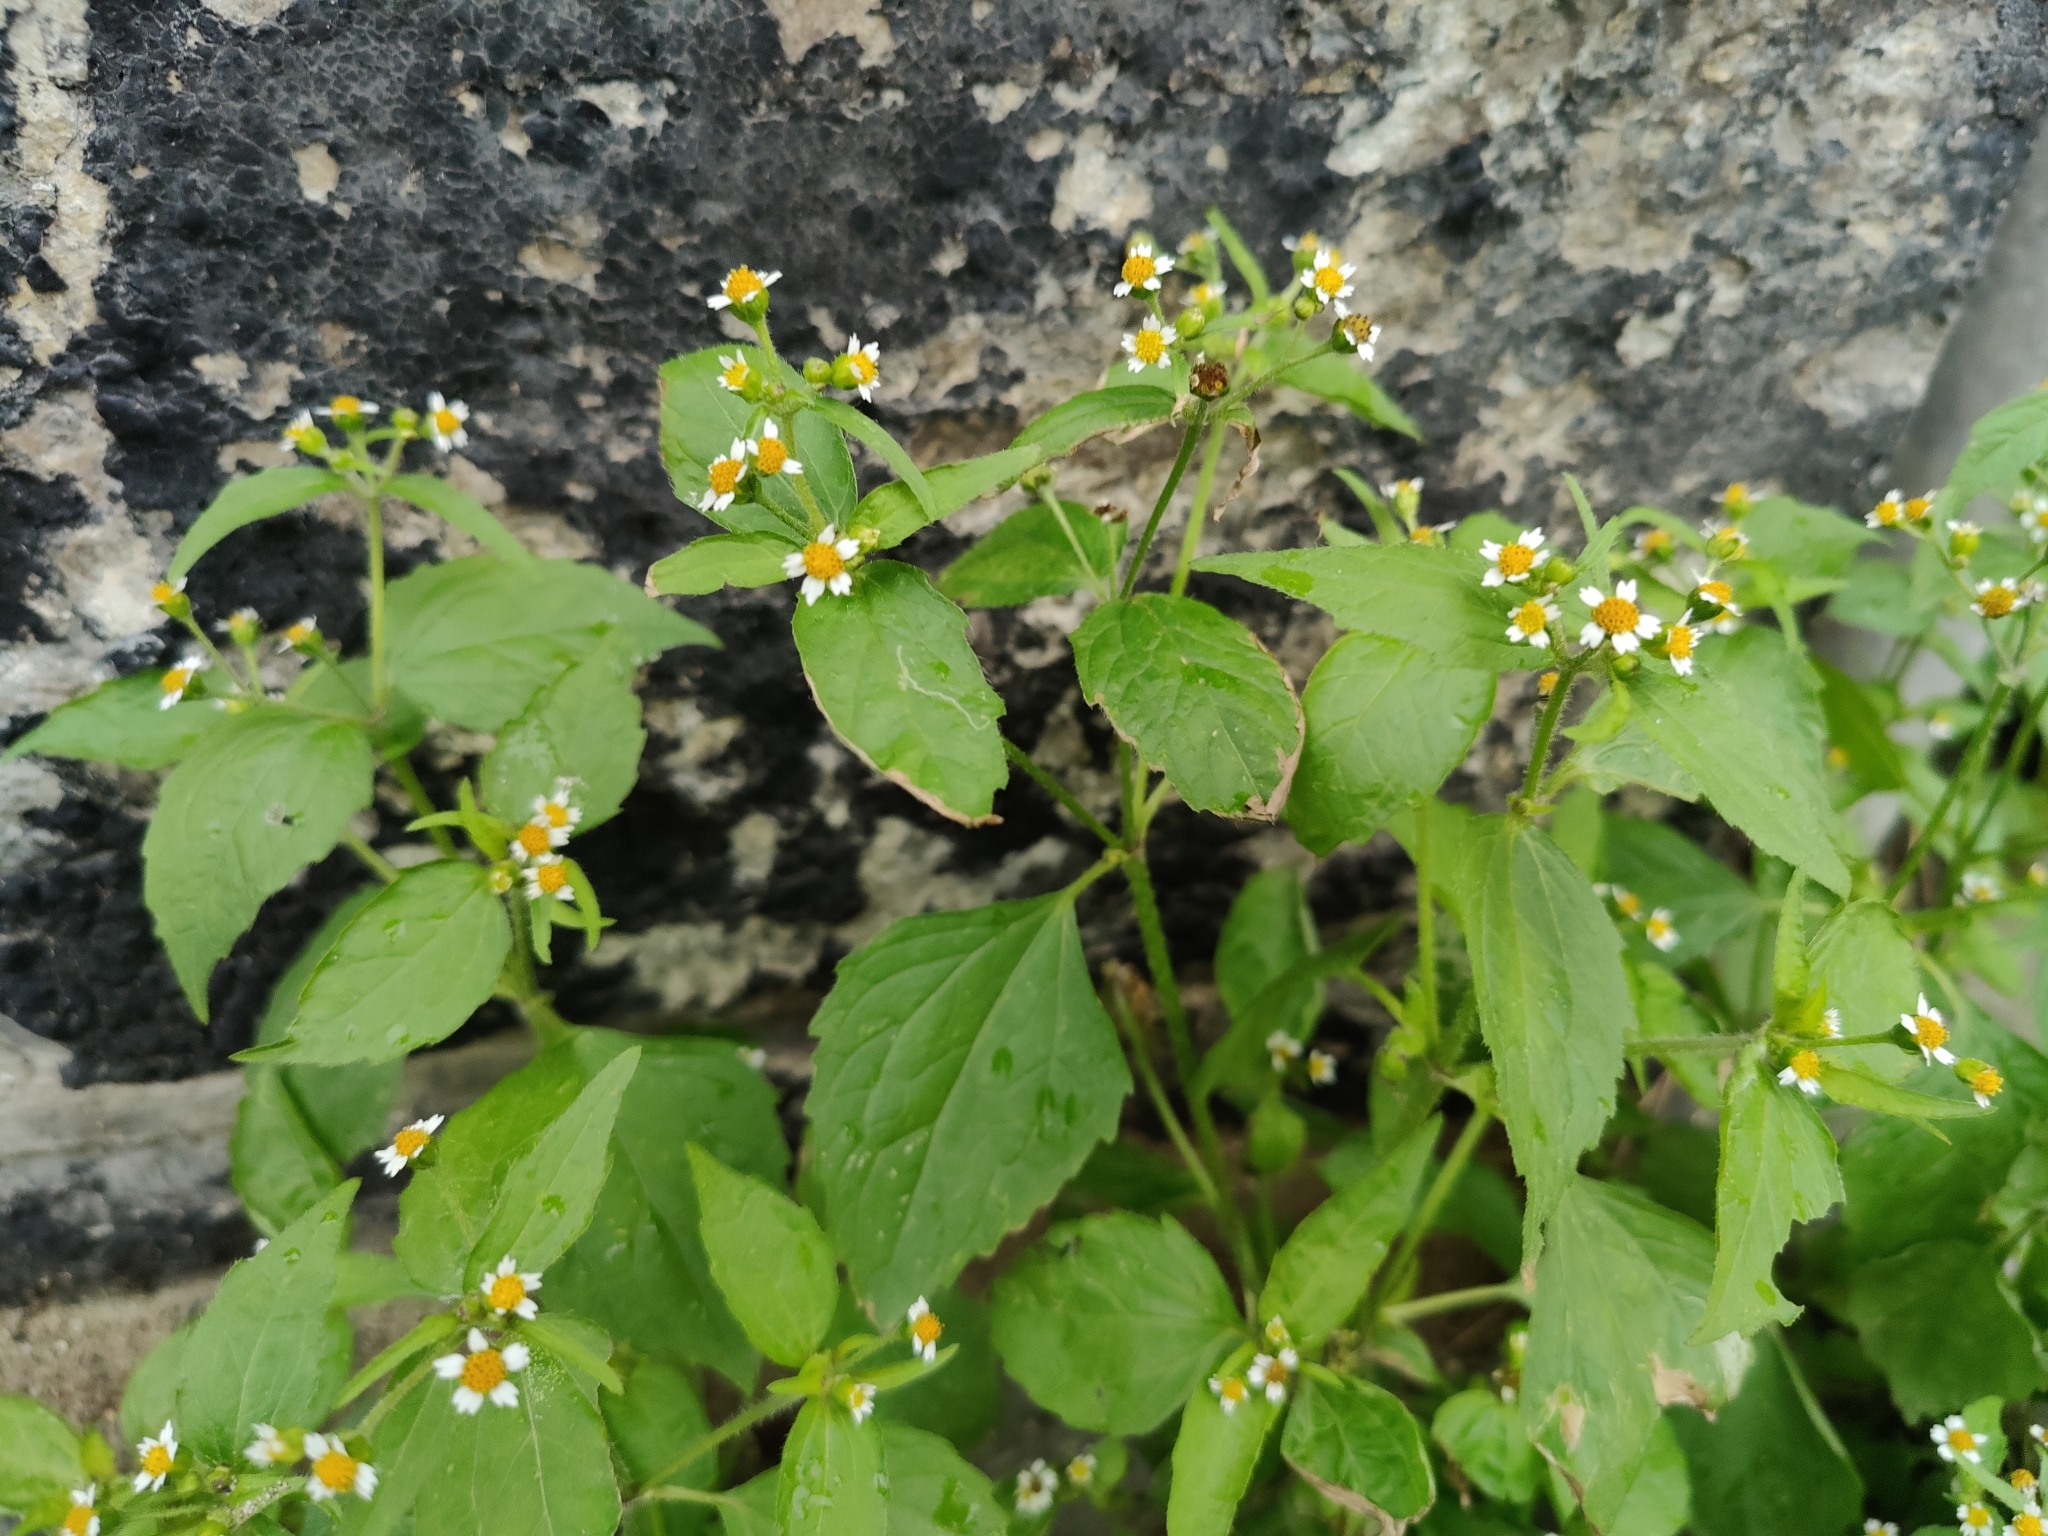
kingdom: Plantae
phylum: Tracheophyta
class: Magnoliopsida
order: Asterales
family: Asteraceae
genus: Galinsoga
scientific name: Galinsoga quadriradiata
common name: Shaggy soldier
